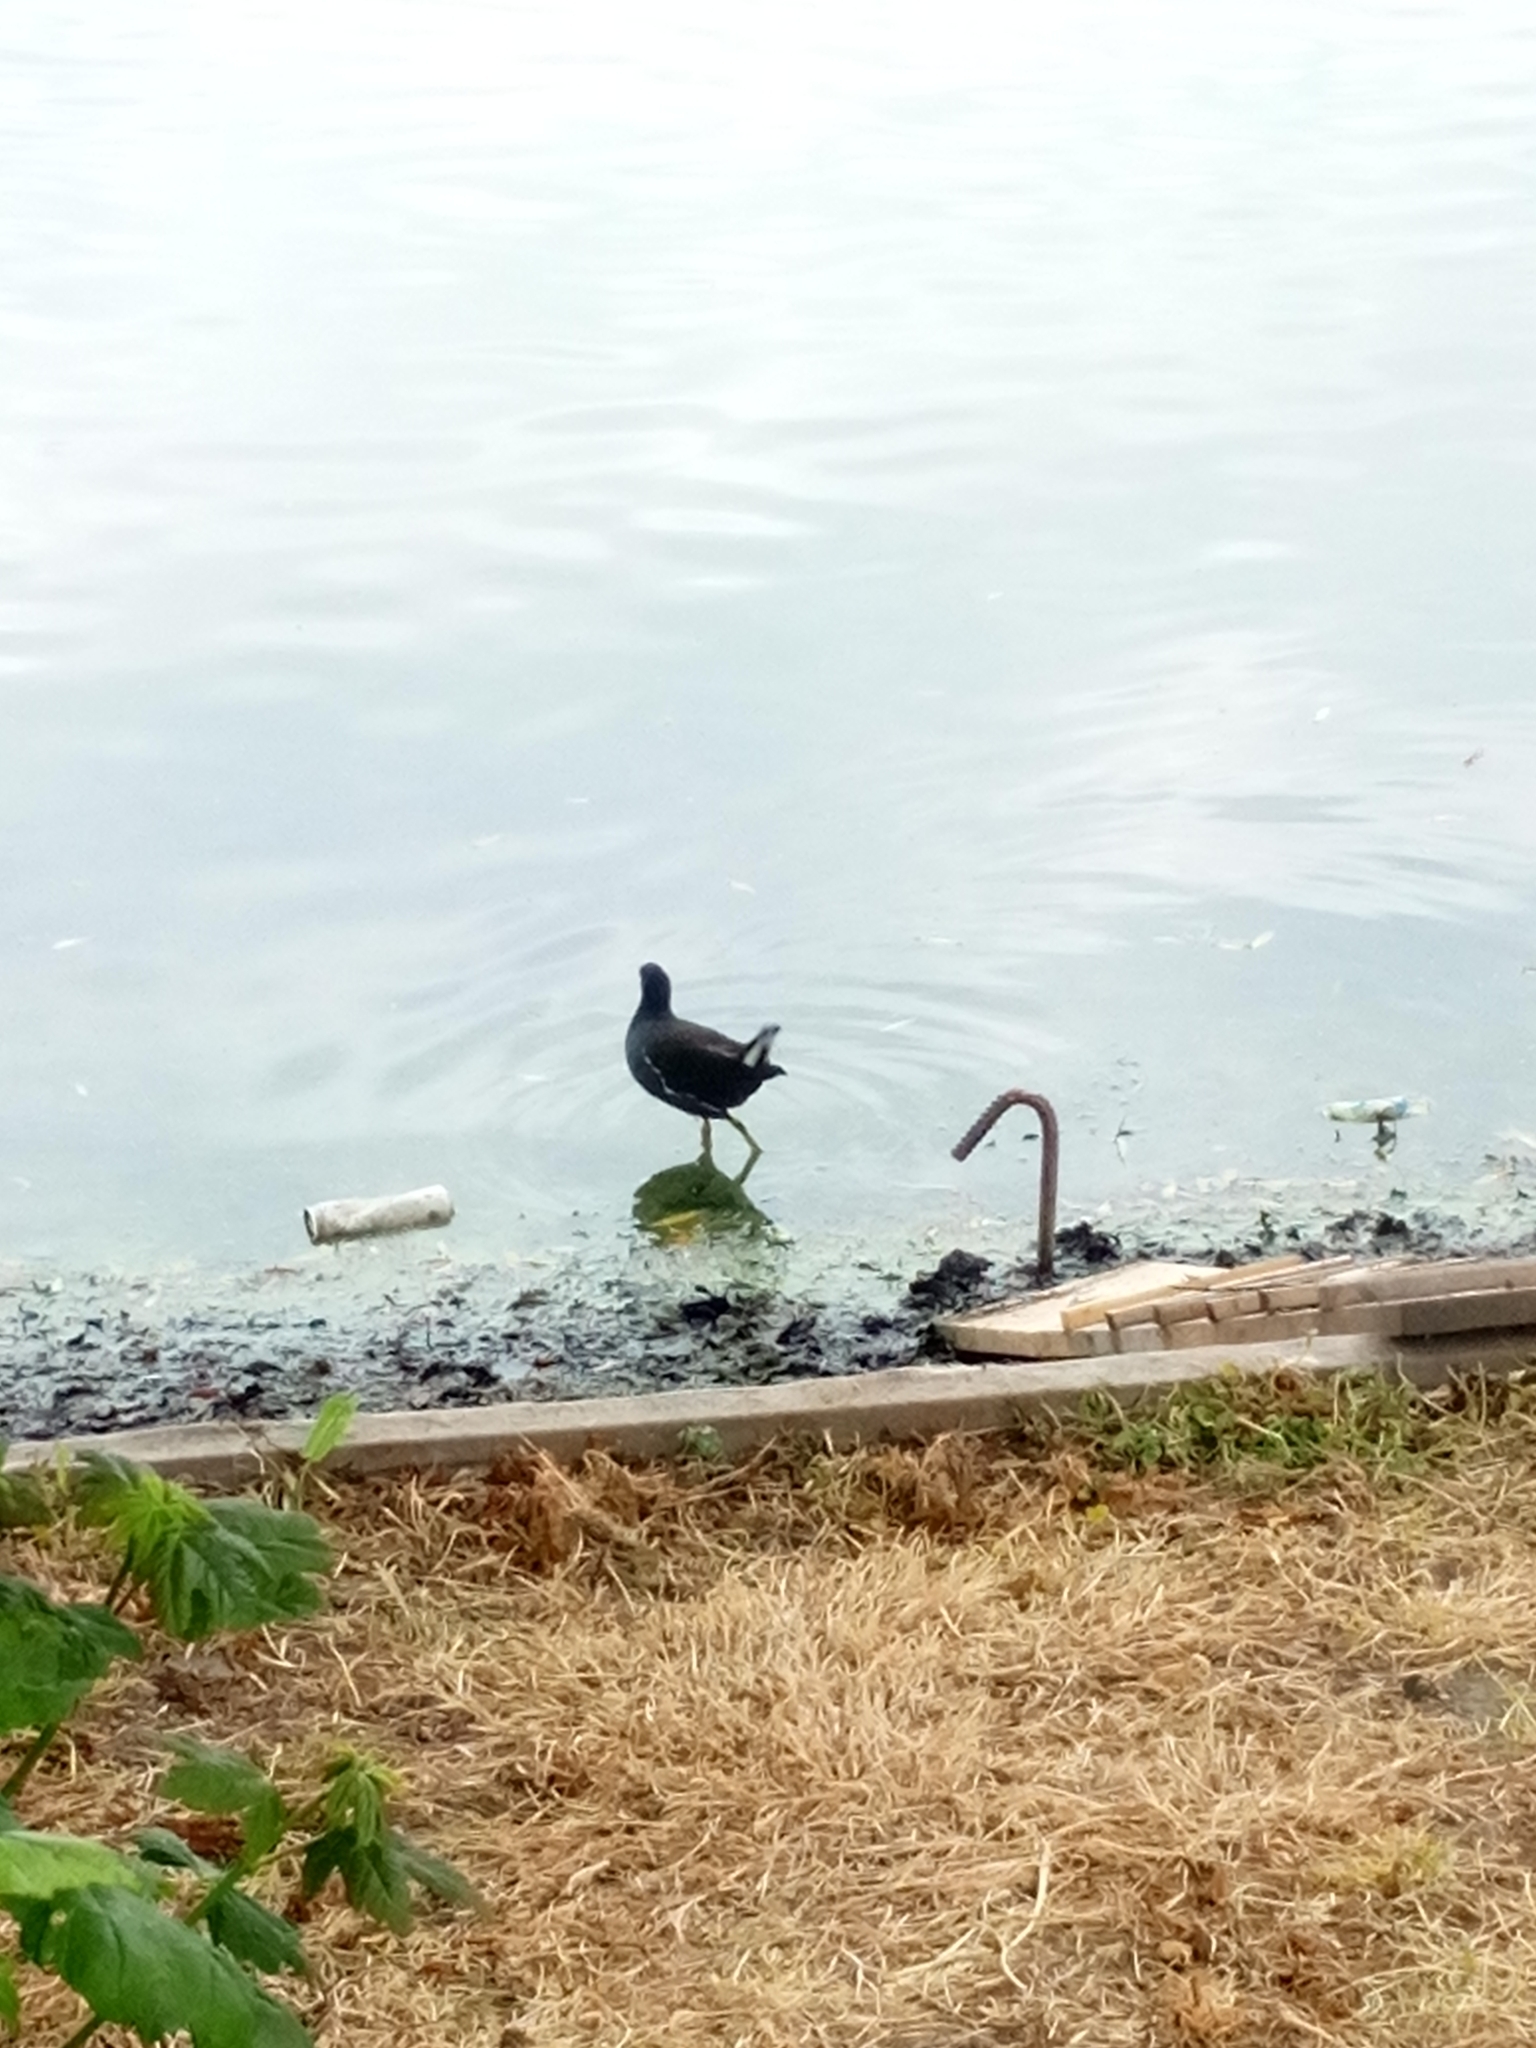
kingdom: Animalia
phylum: Chordata
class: Aves
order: Gruiformes
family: Rallidae
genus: Gallinula
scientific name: Gallinula chloropus
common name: Common moorhen
